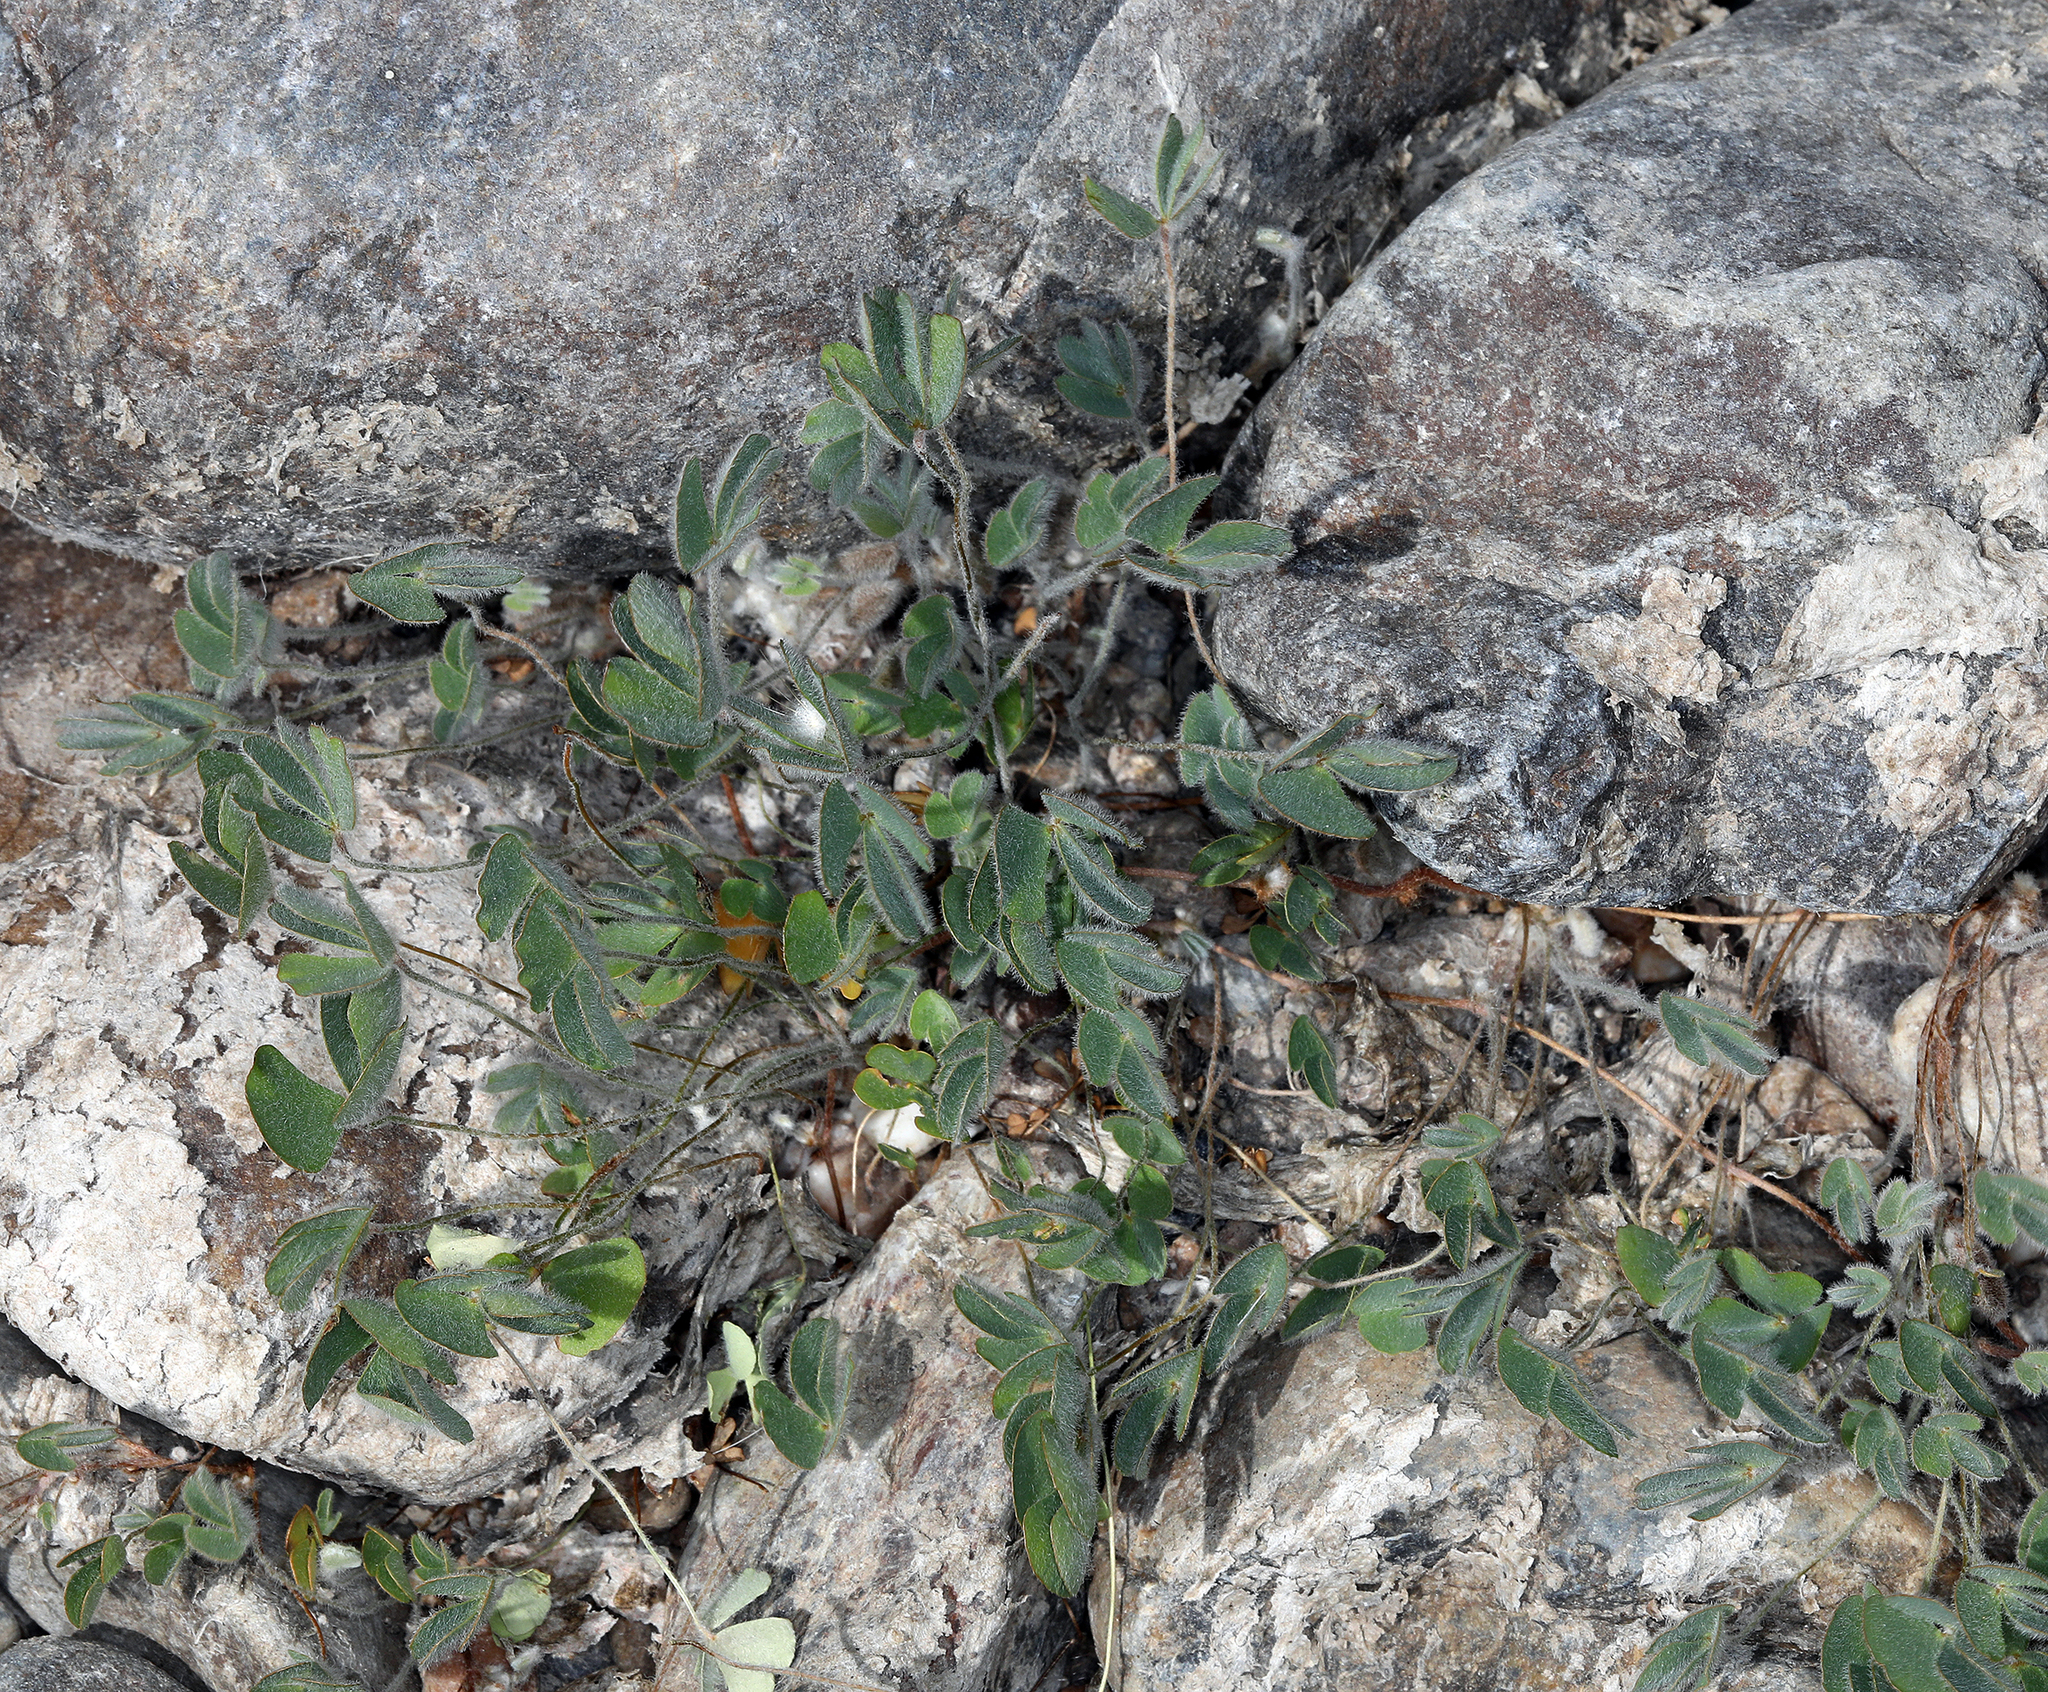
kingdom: Plantae
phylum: Tracheophyta
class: Polypodiopsida
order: Salviniales
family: Marsileaceae
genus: Marsilea
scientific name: Marsilea vestita
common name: Hooked-pepperwort
